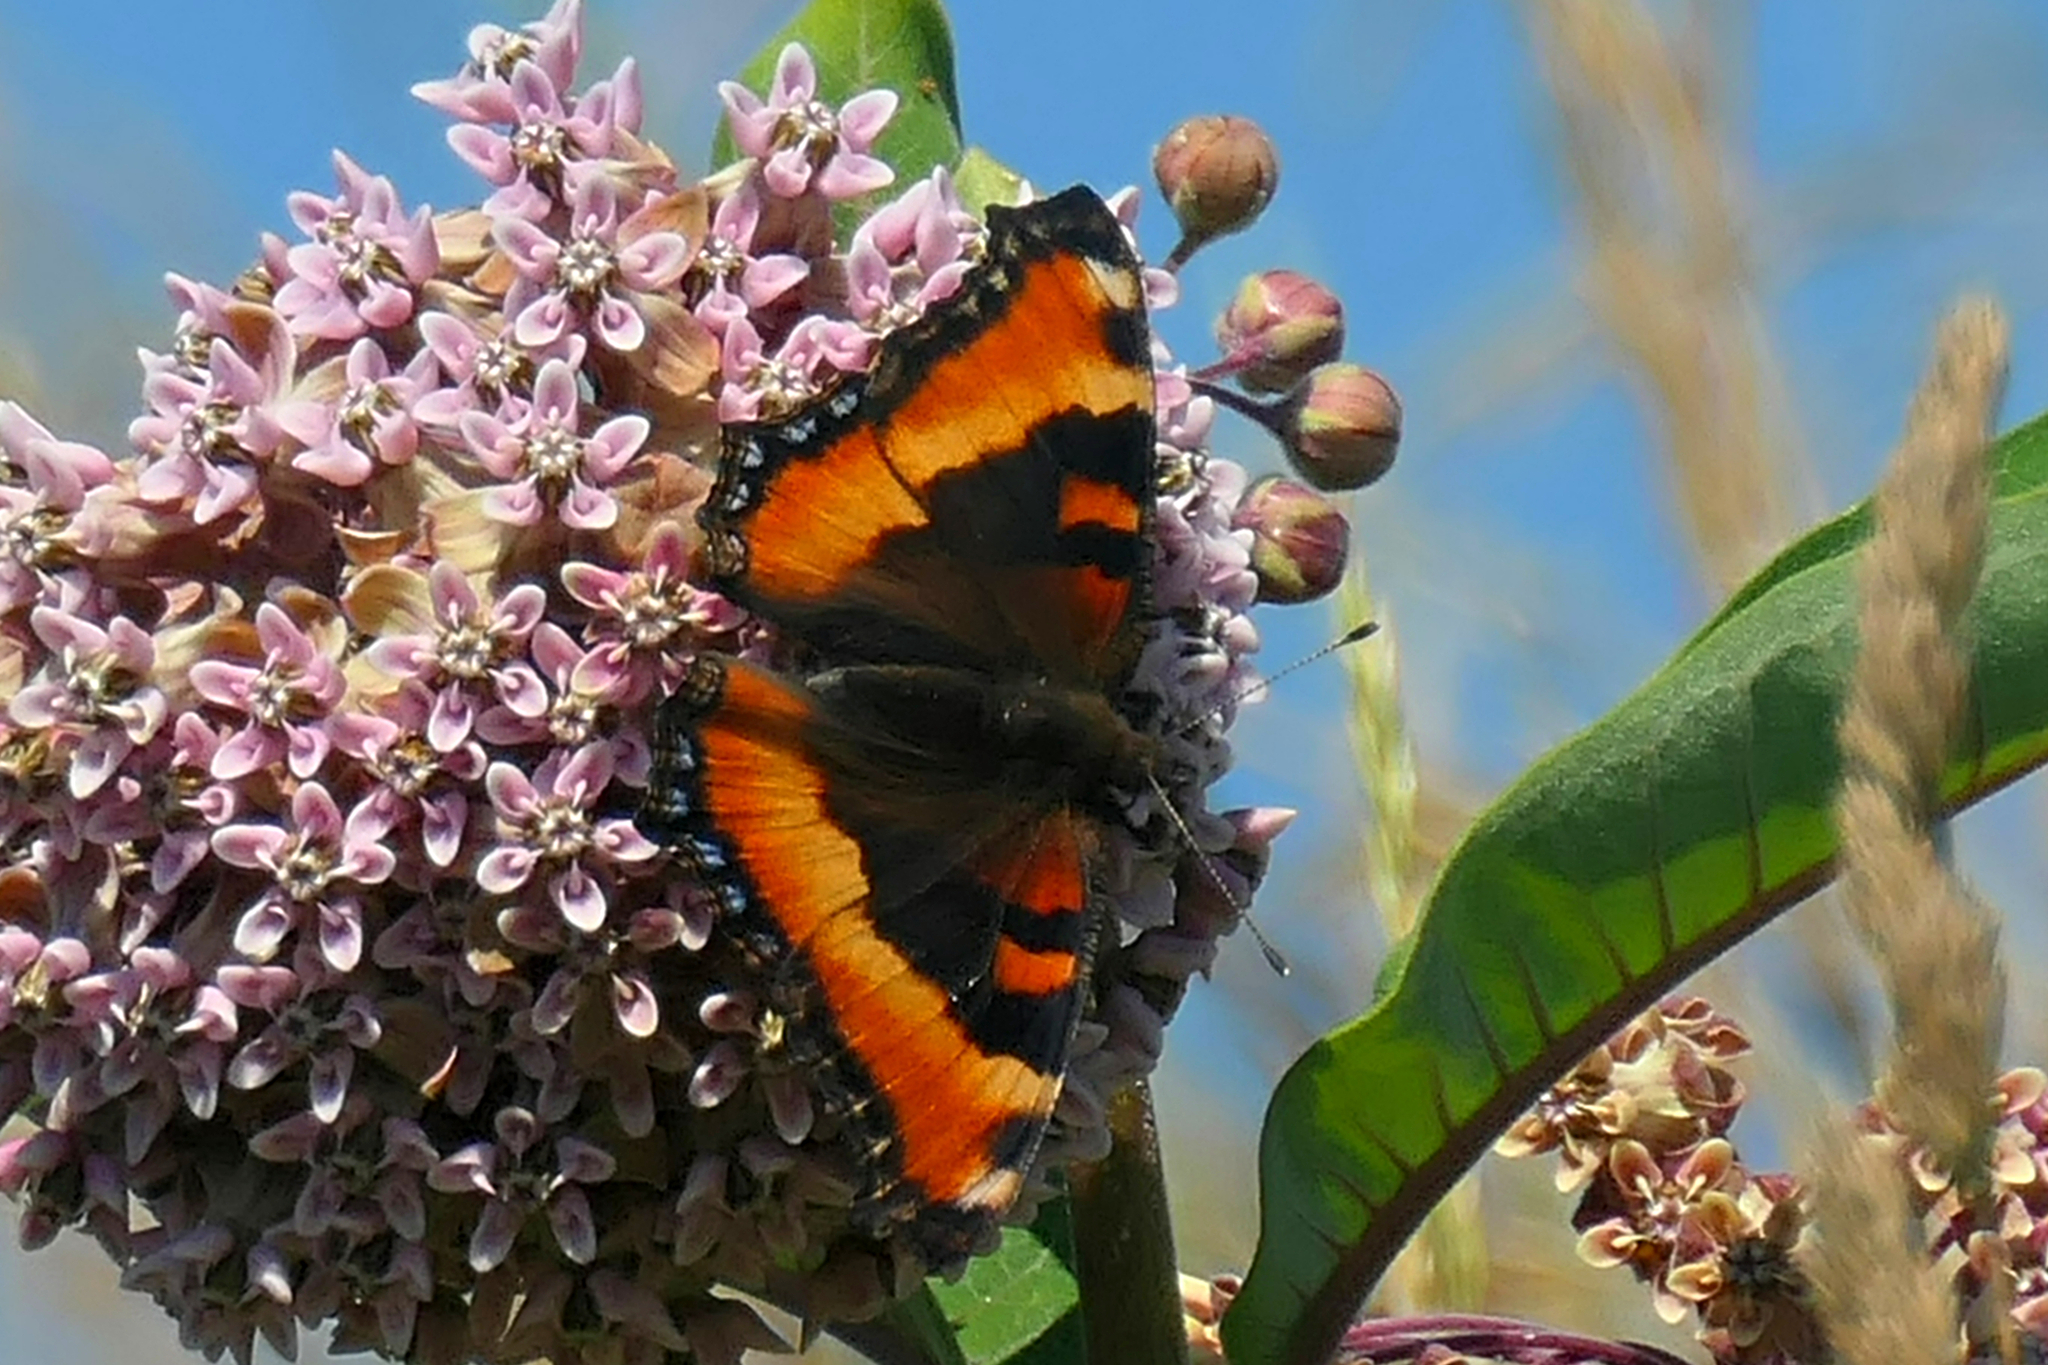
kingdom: Animalia
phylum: Arthropoda
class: Insecta
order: Lepidoptera
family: Nymphalidae
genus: Aglais
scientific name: Aglais milberti
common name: Milbert's tortoiseshell
